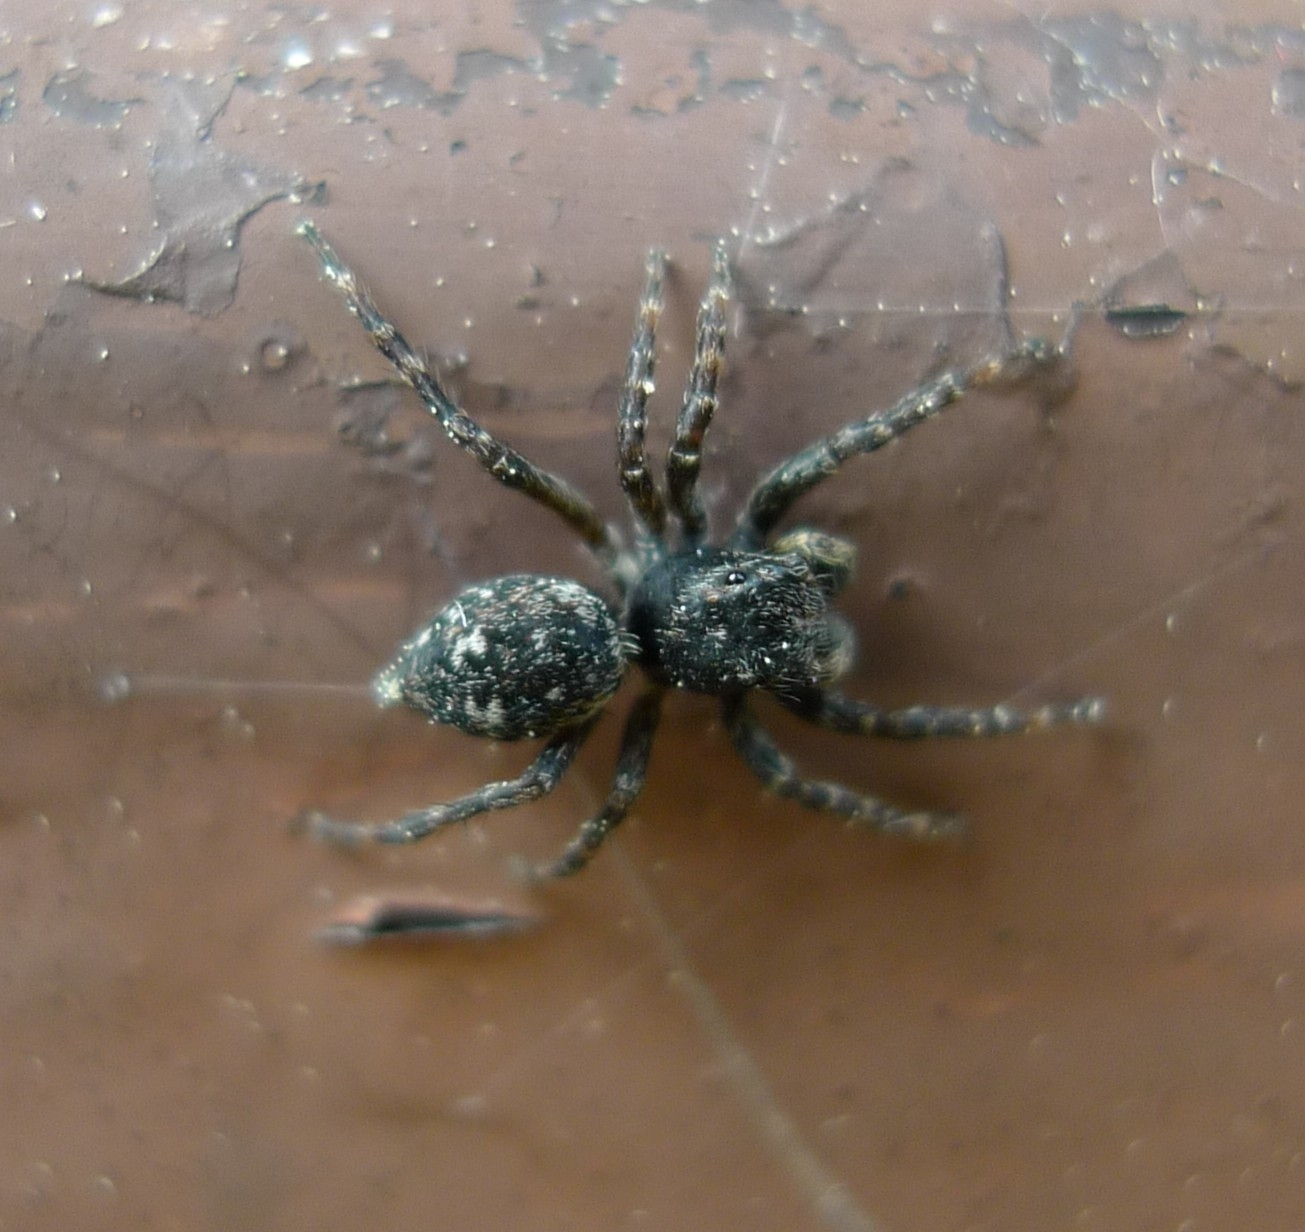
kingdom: Animalia
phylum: Arthropoda
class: Arachnida
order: Araneae
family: Salticidae
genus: Attulus
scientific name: Attulus pubescens
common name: Jumping spider
